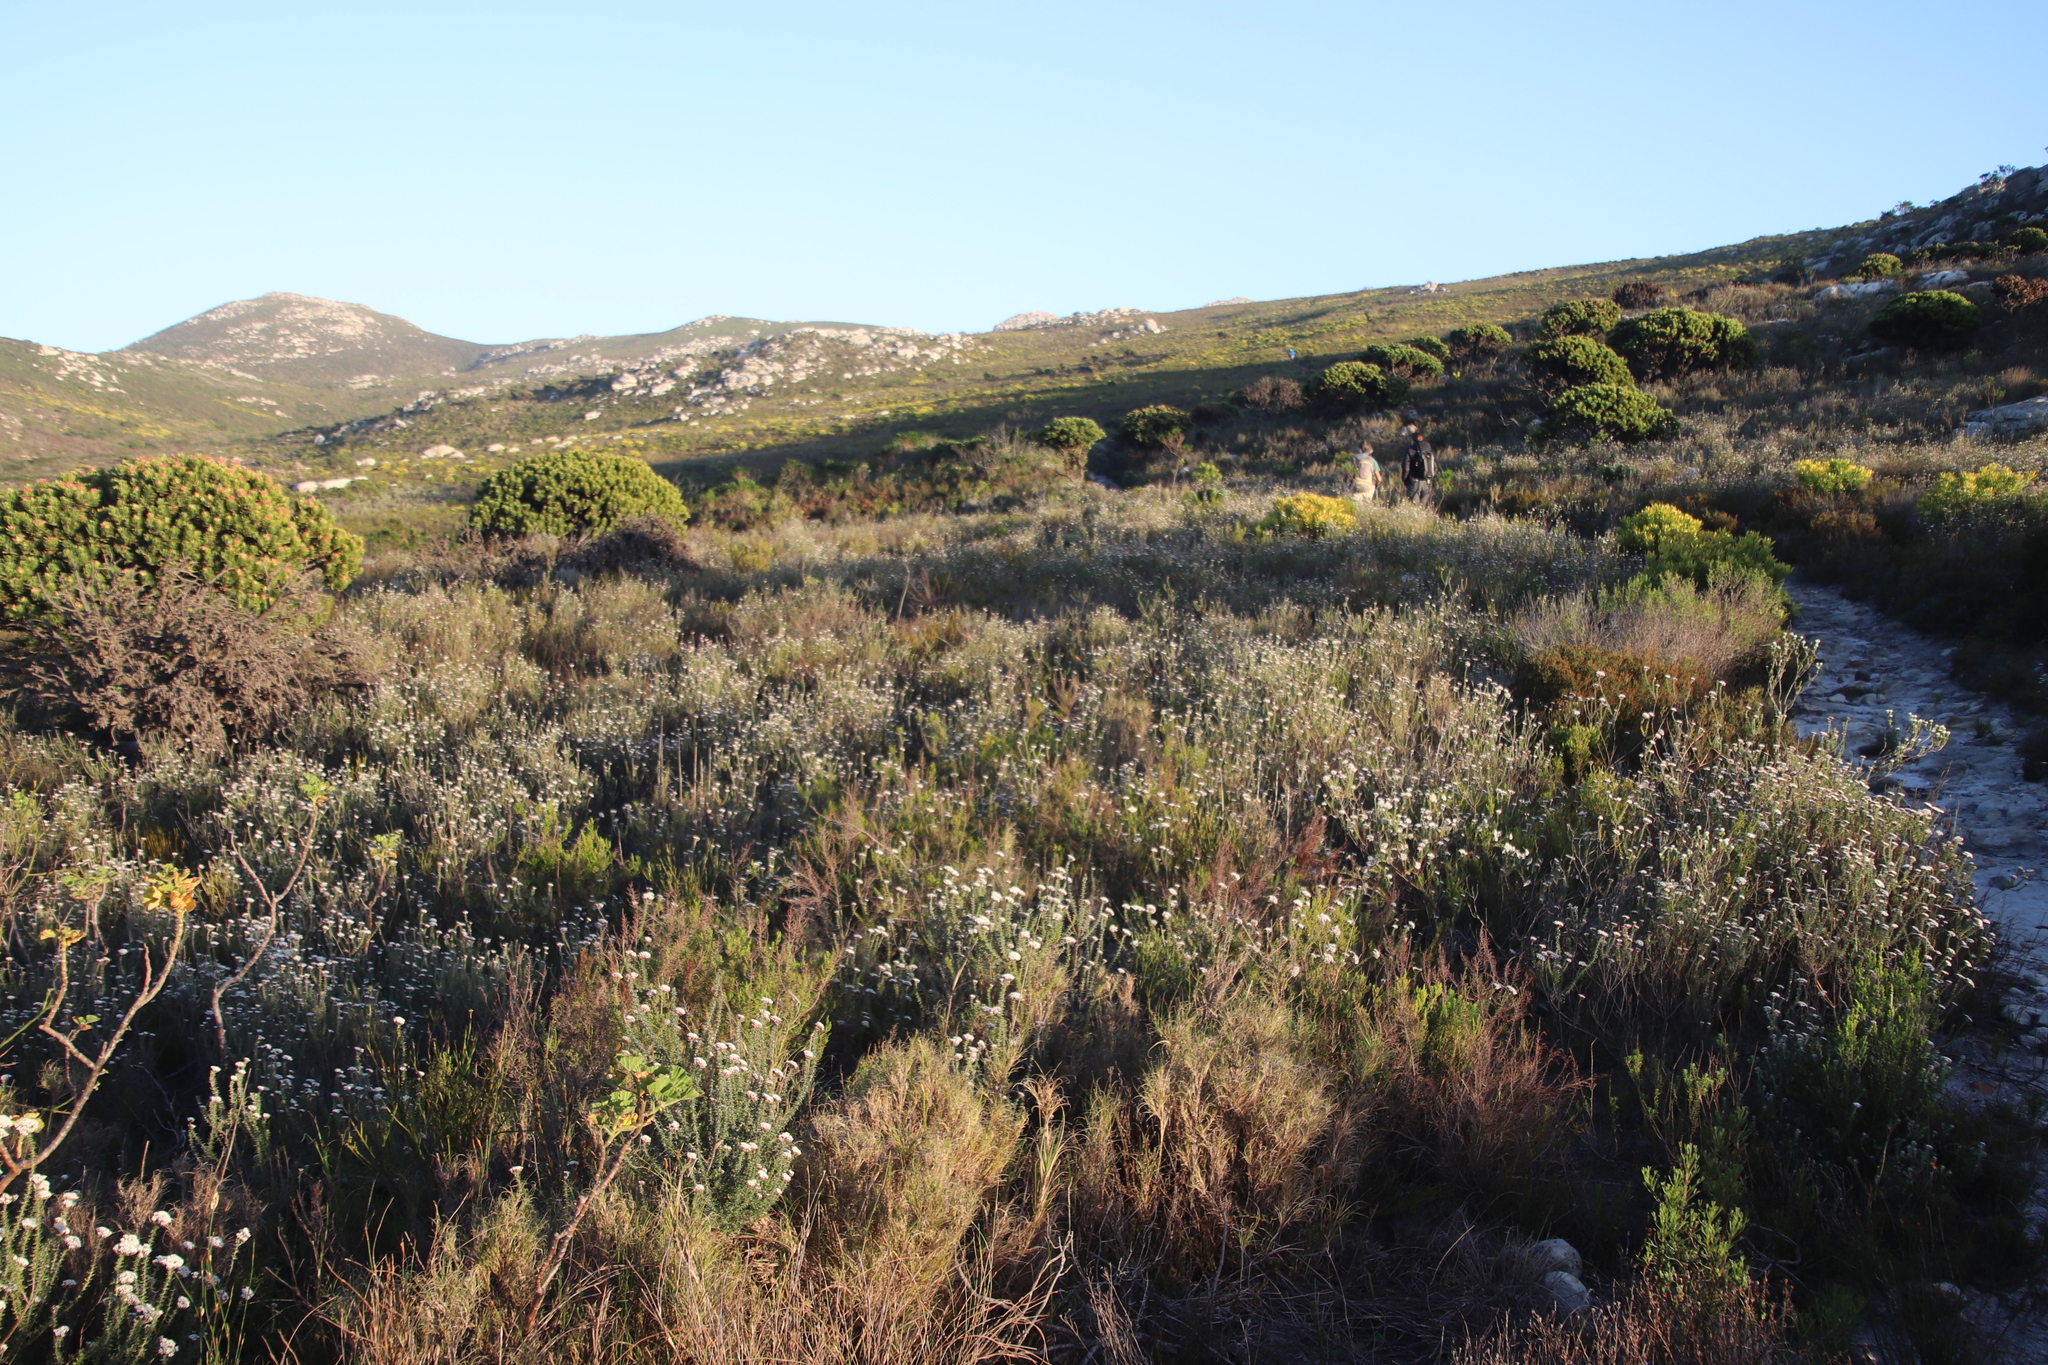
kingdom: Plantae
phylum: Tracheophyta
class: Magnoliopsida
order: Asterales
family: Asteraceae
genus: Metalasia
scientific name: Metalasia densa
